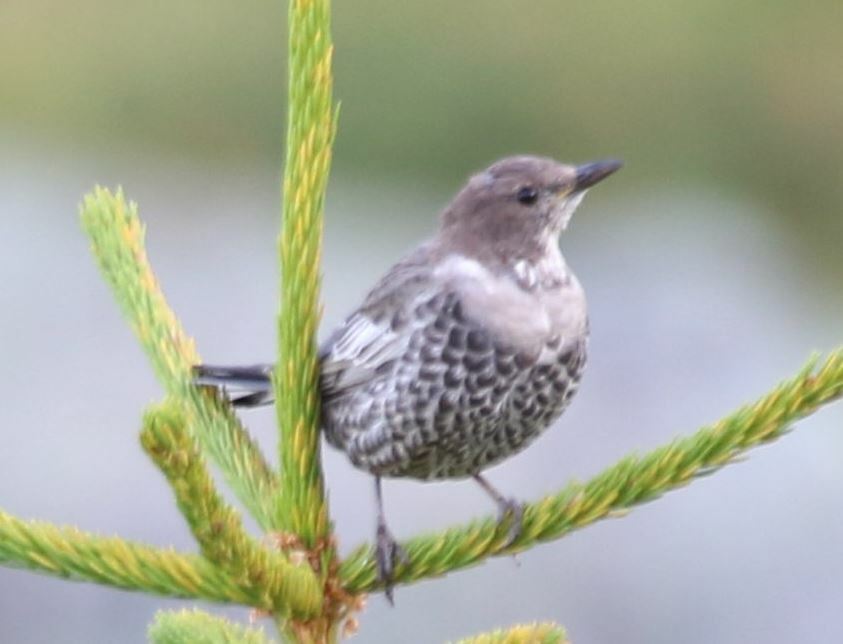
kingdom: Animalia
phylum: Chordata
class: Aves
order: Passeriformes
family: Turdidae
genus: Turdus
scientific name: Turdus torquatus
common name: Ring ouzel
